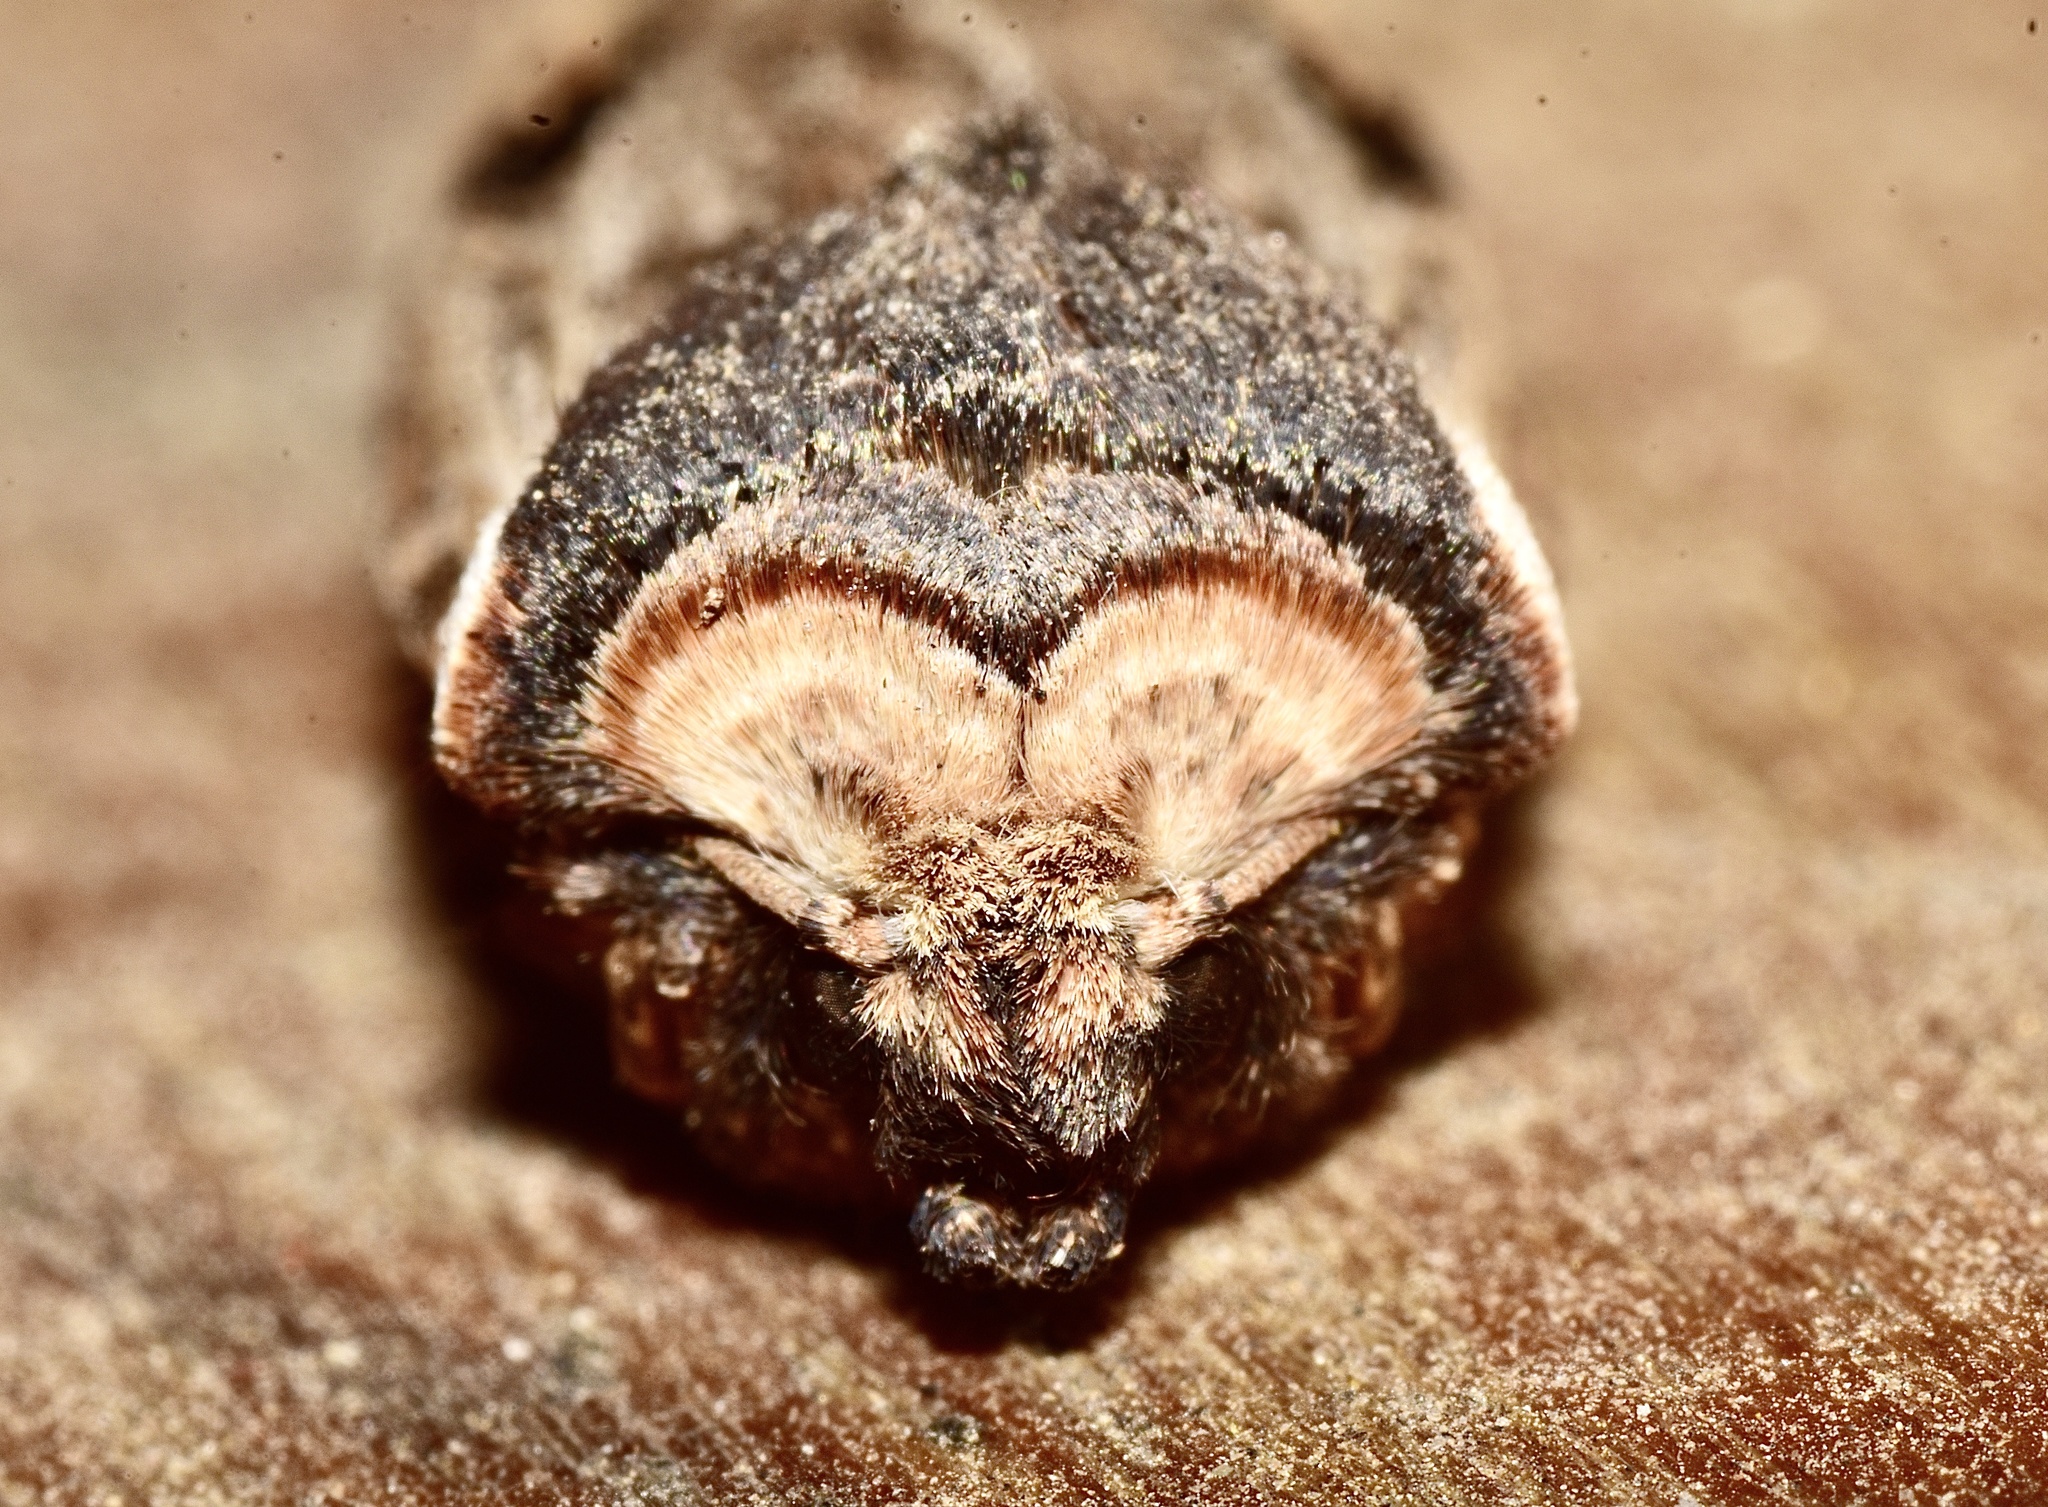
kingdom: Animalia
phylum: Arthropoda
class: Insecta
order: Lepidoptera
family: Noctuidae
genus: Xylena
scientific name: Xylena curvimacula
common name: Dot-and-dash swordgrass moth
